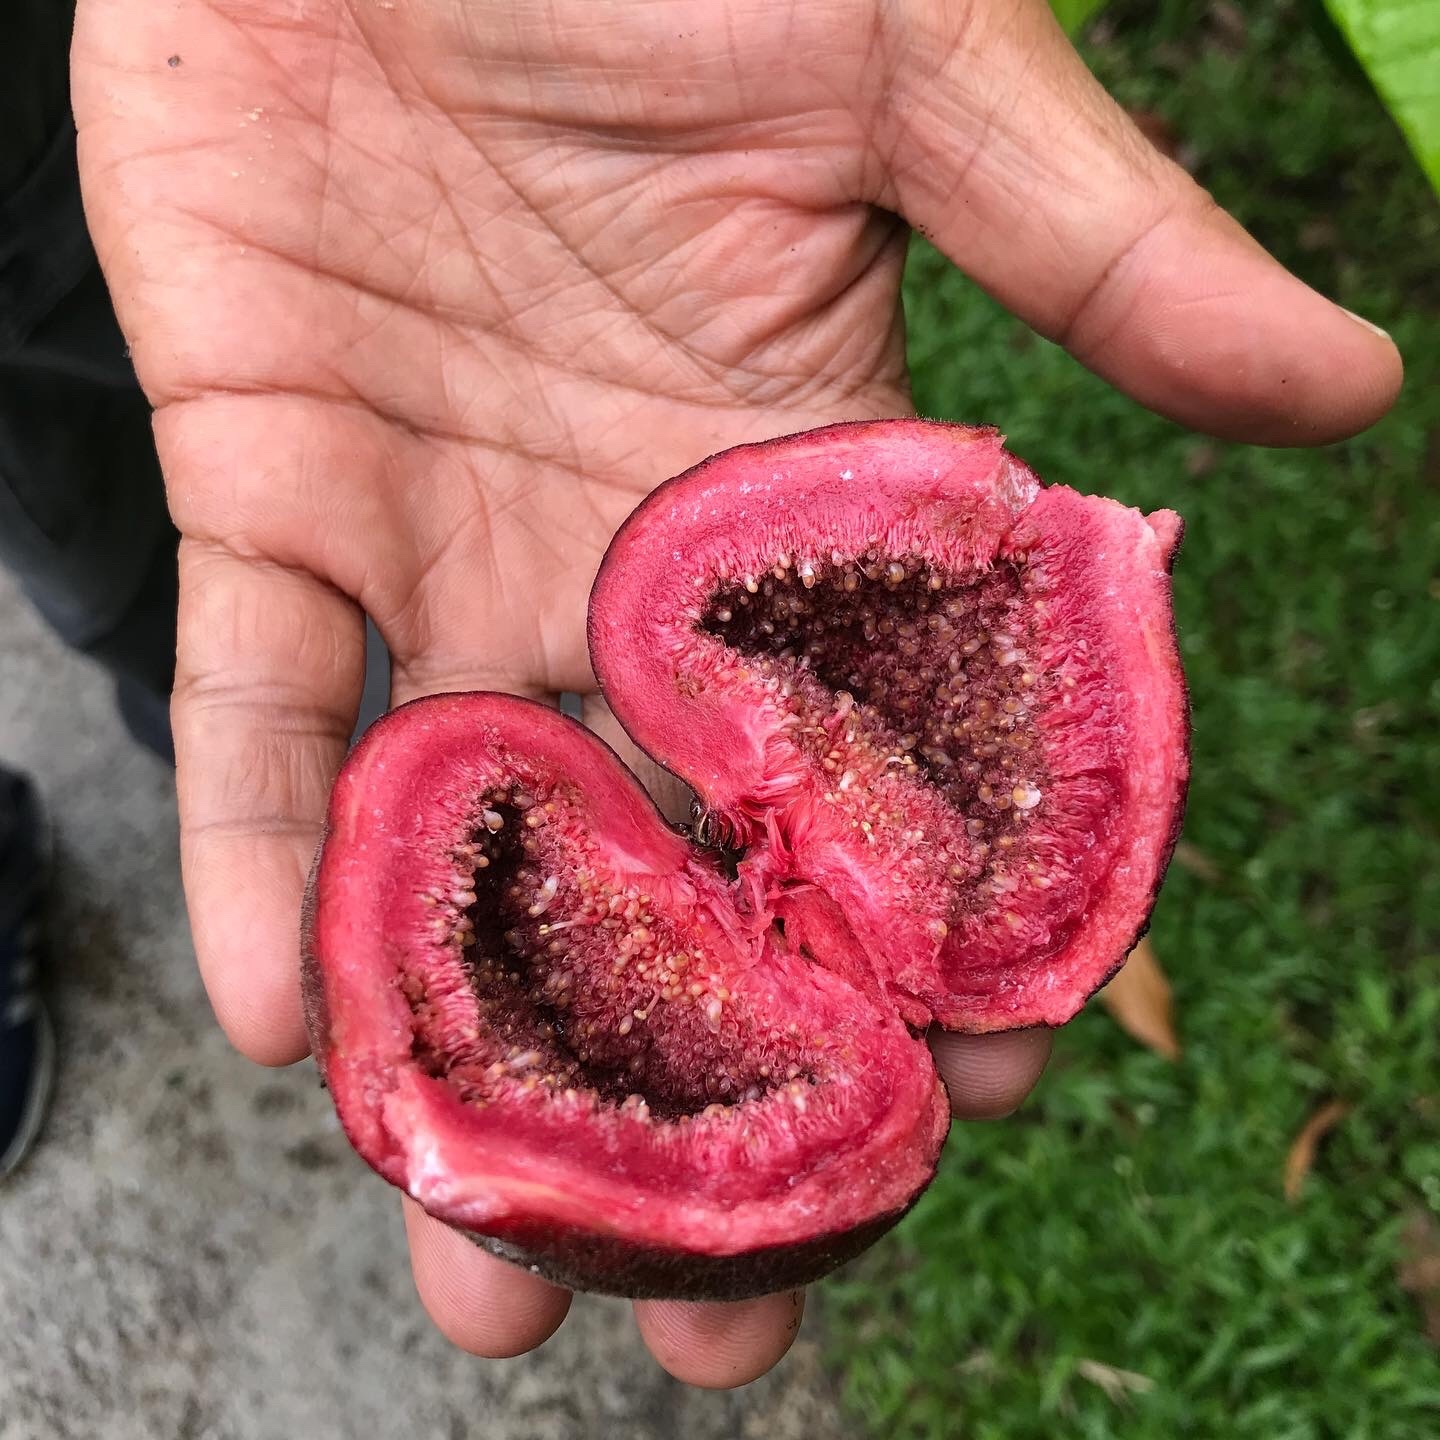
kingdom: Plantae
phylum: Tracheophyta
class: Magnoliopsida
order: Rosales
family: Moraceae
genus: Ficus
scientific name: Ficus auriculata
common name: Roxburgh fig
